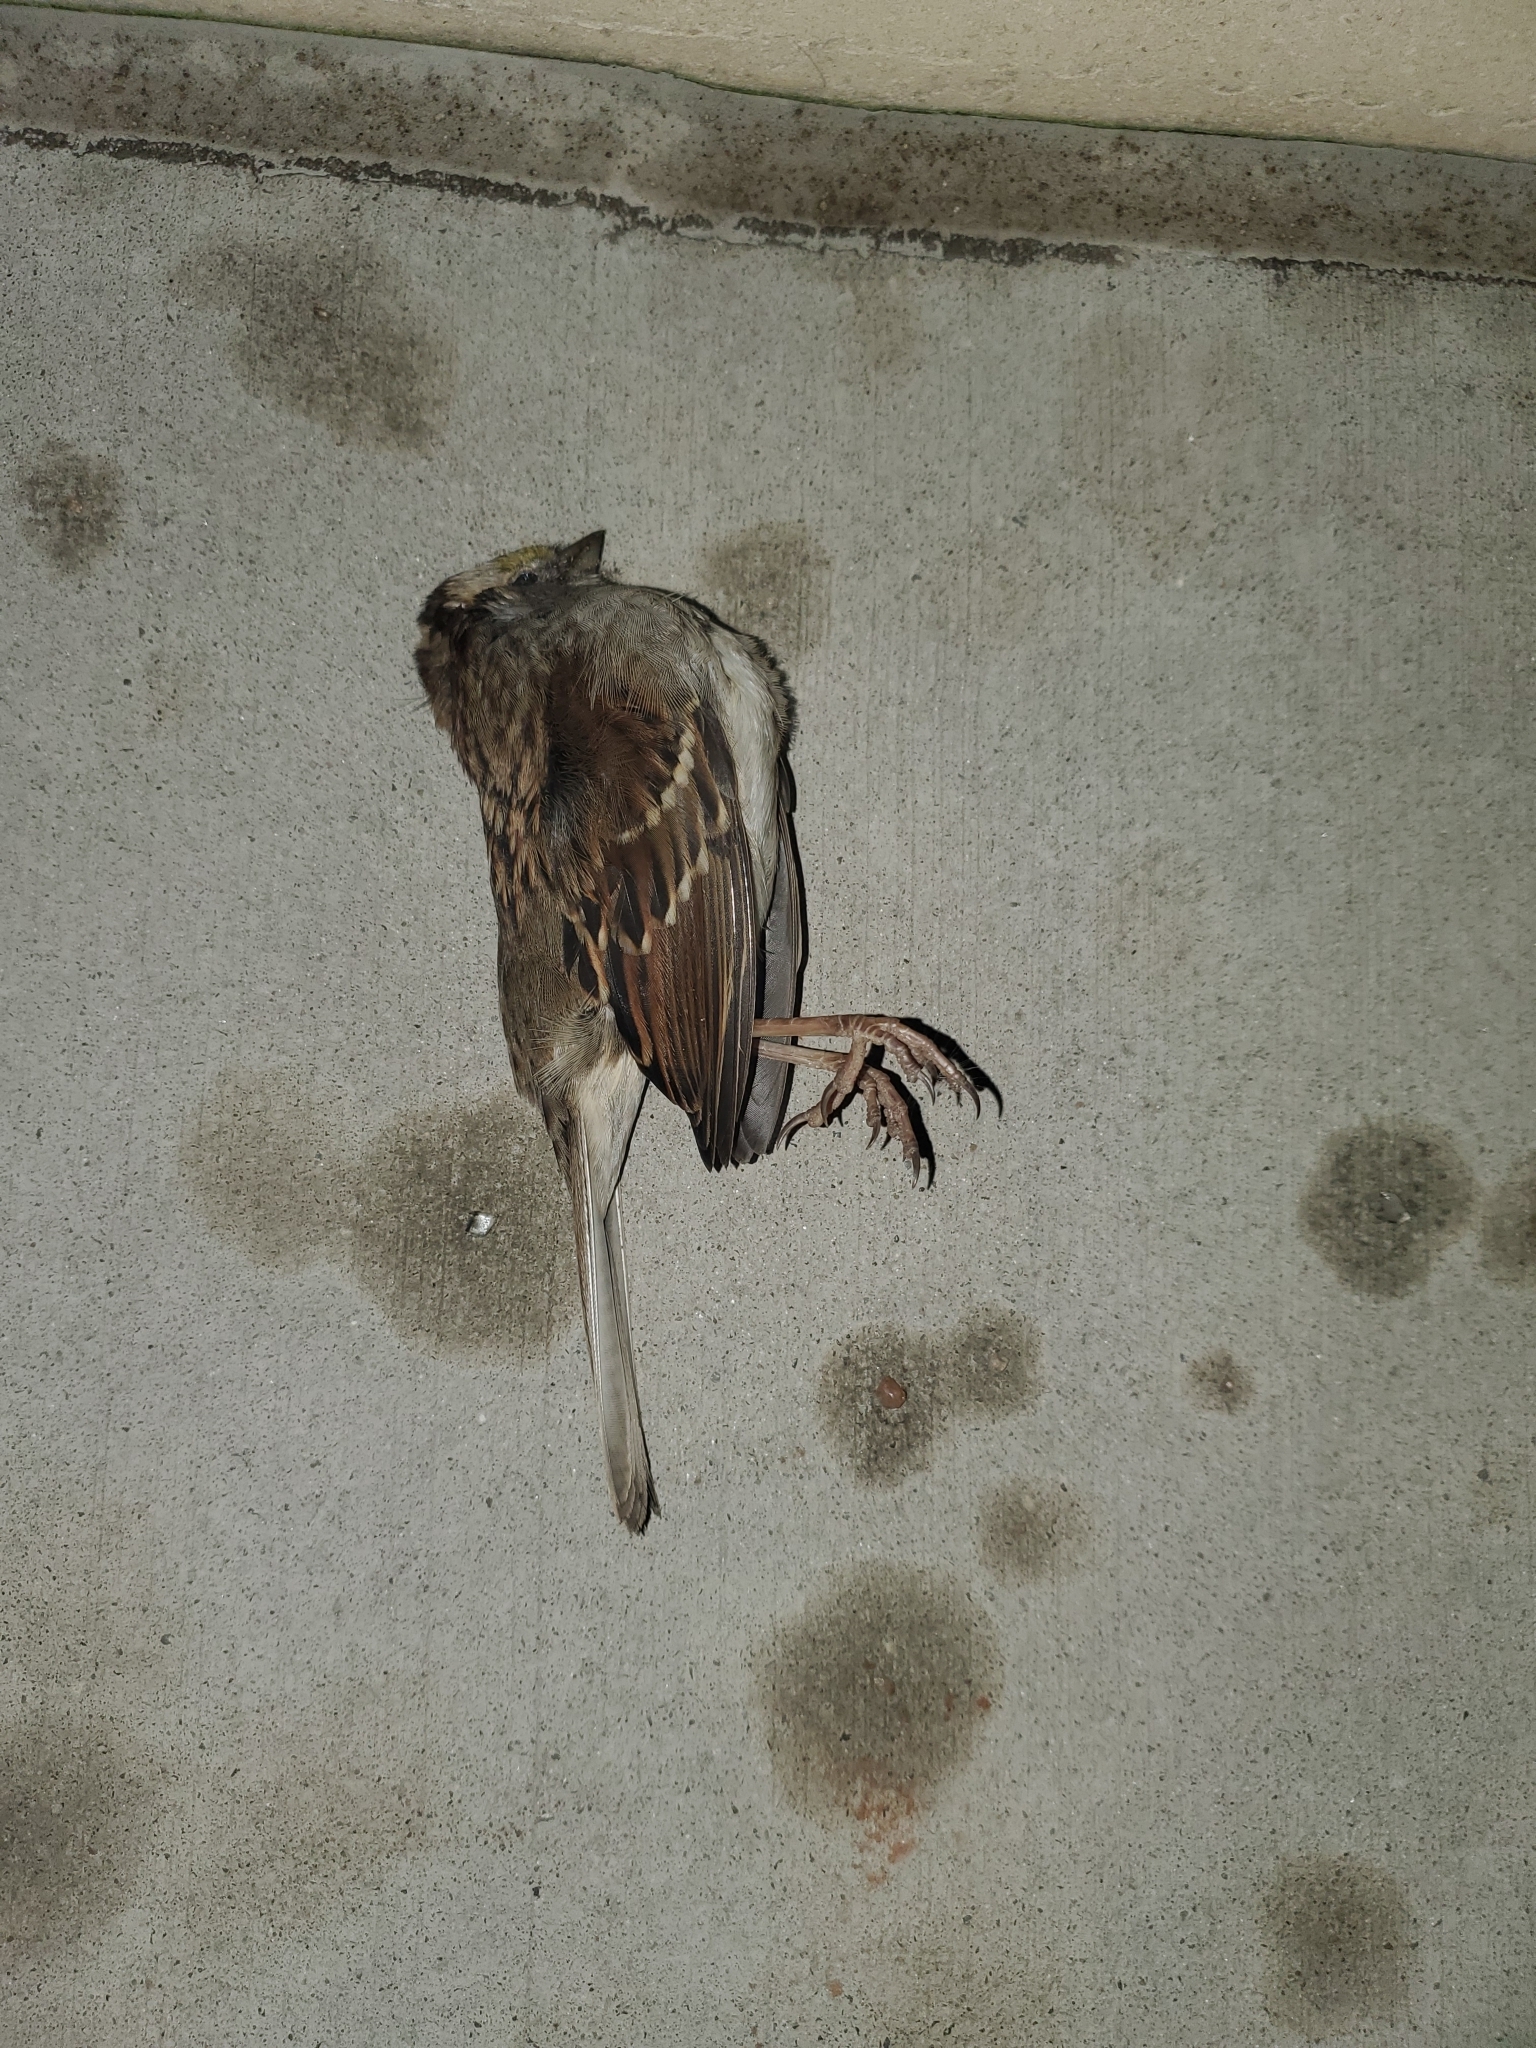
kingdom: Animalia
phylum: Chordata
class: Aves
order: Passeriformes
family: Passerellidae
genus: Zonotrichia
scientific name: Zonotrichia albicollis
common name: White-throated sparrow
